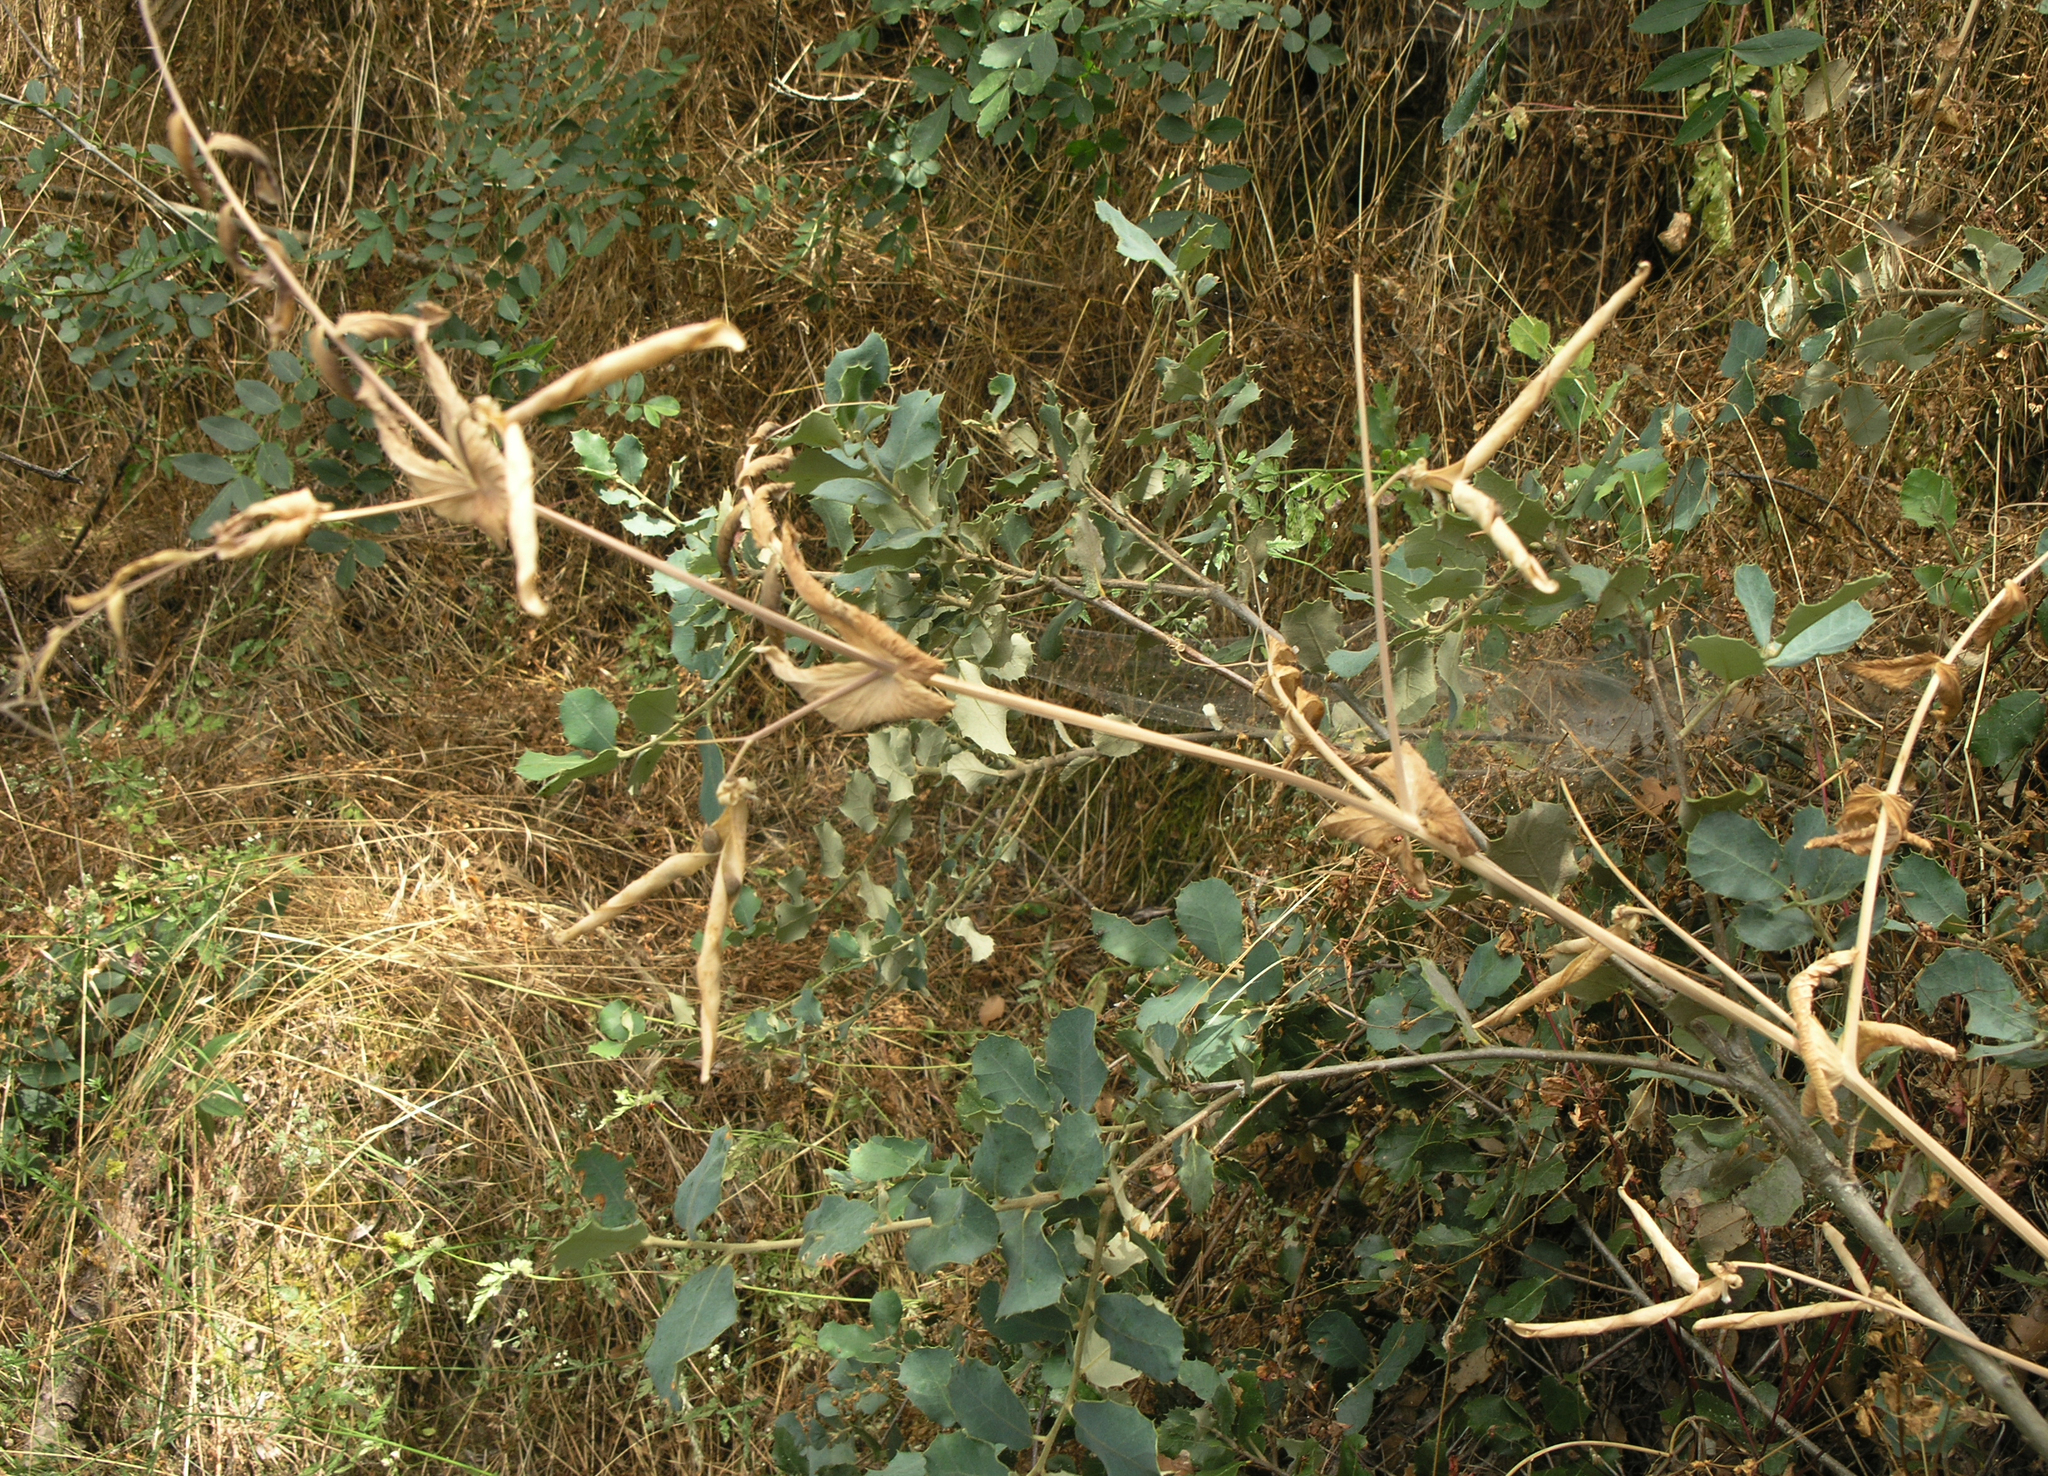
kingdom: Plantae
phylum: Tracheophyta
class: Magnoliopsida
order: Fabales
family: Fabaceae
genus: Lathyrus
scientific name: Lathyrus oleraceus
